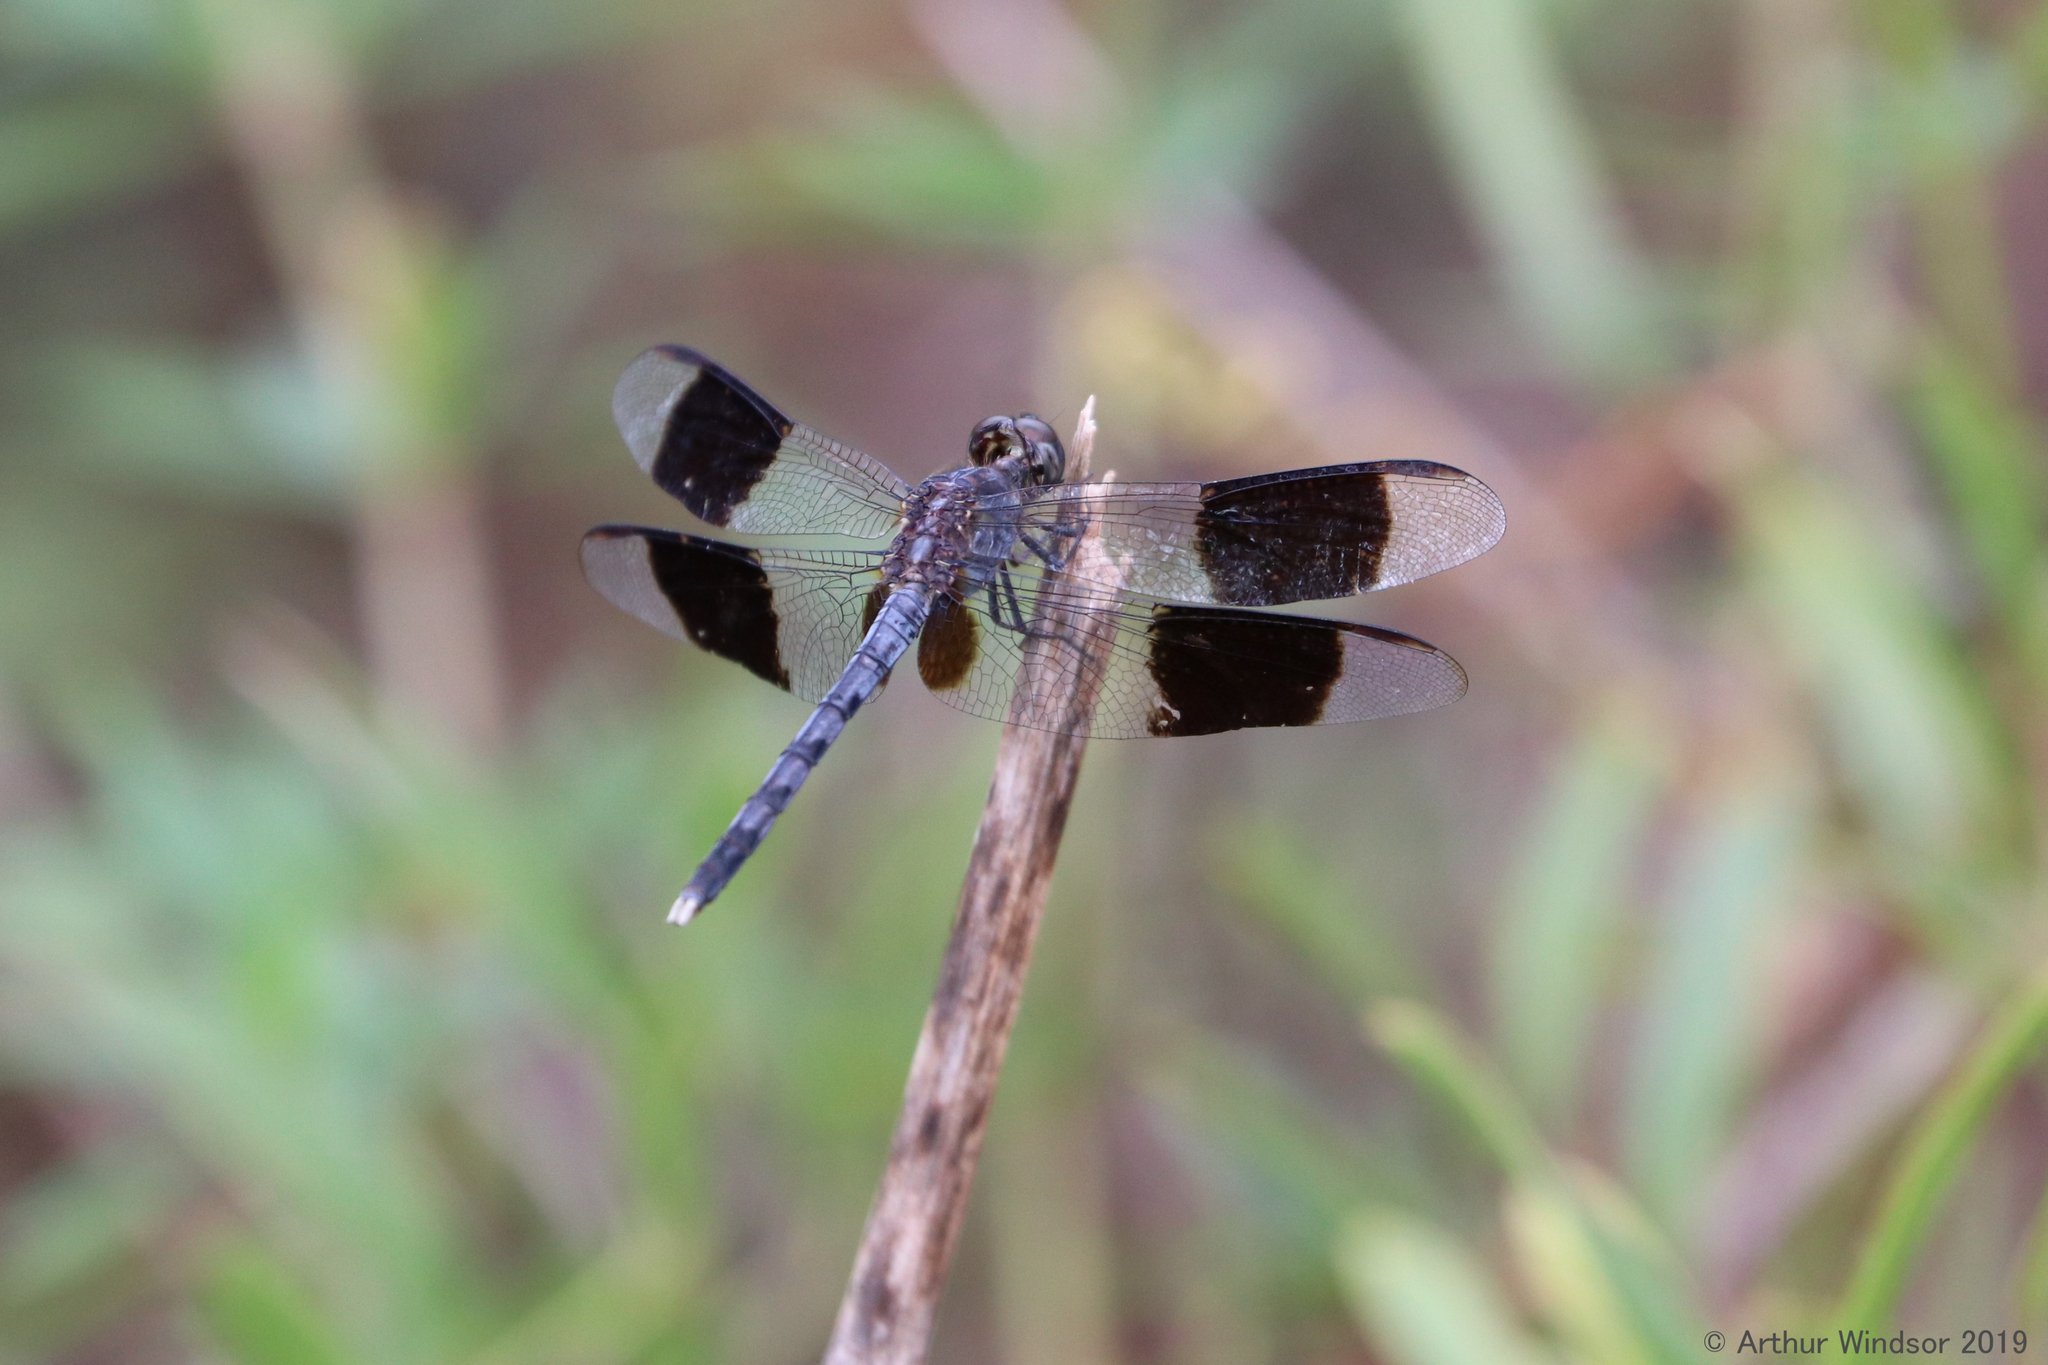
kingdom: Animalia
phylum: Arthropoda
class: Insecta
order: Odonata
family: Libellulidae
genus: Erythrodiplax
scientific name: Erythrodiplax umbrata
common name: Band-winged dragonlet
